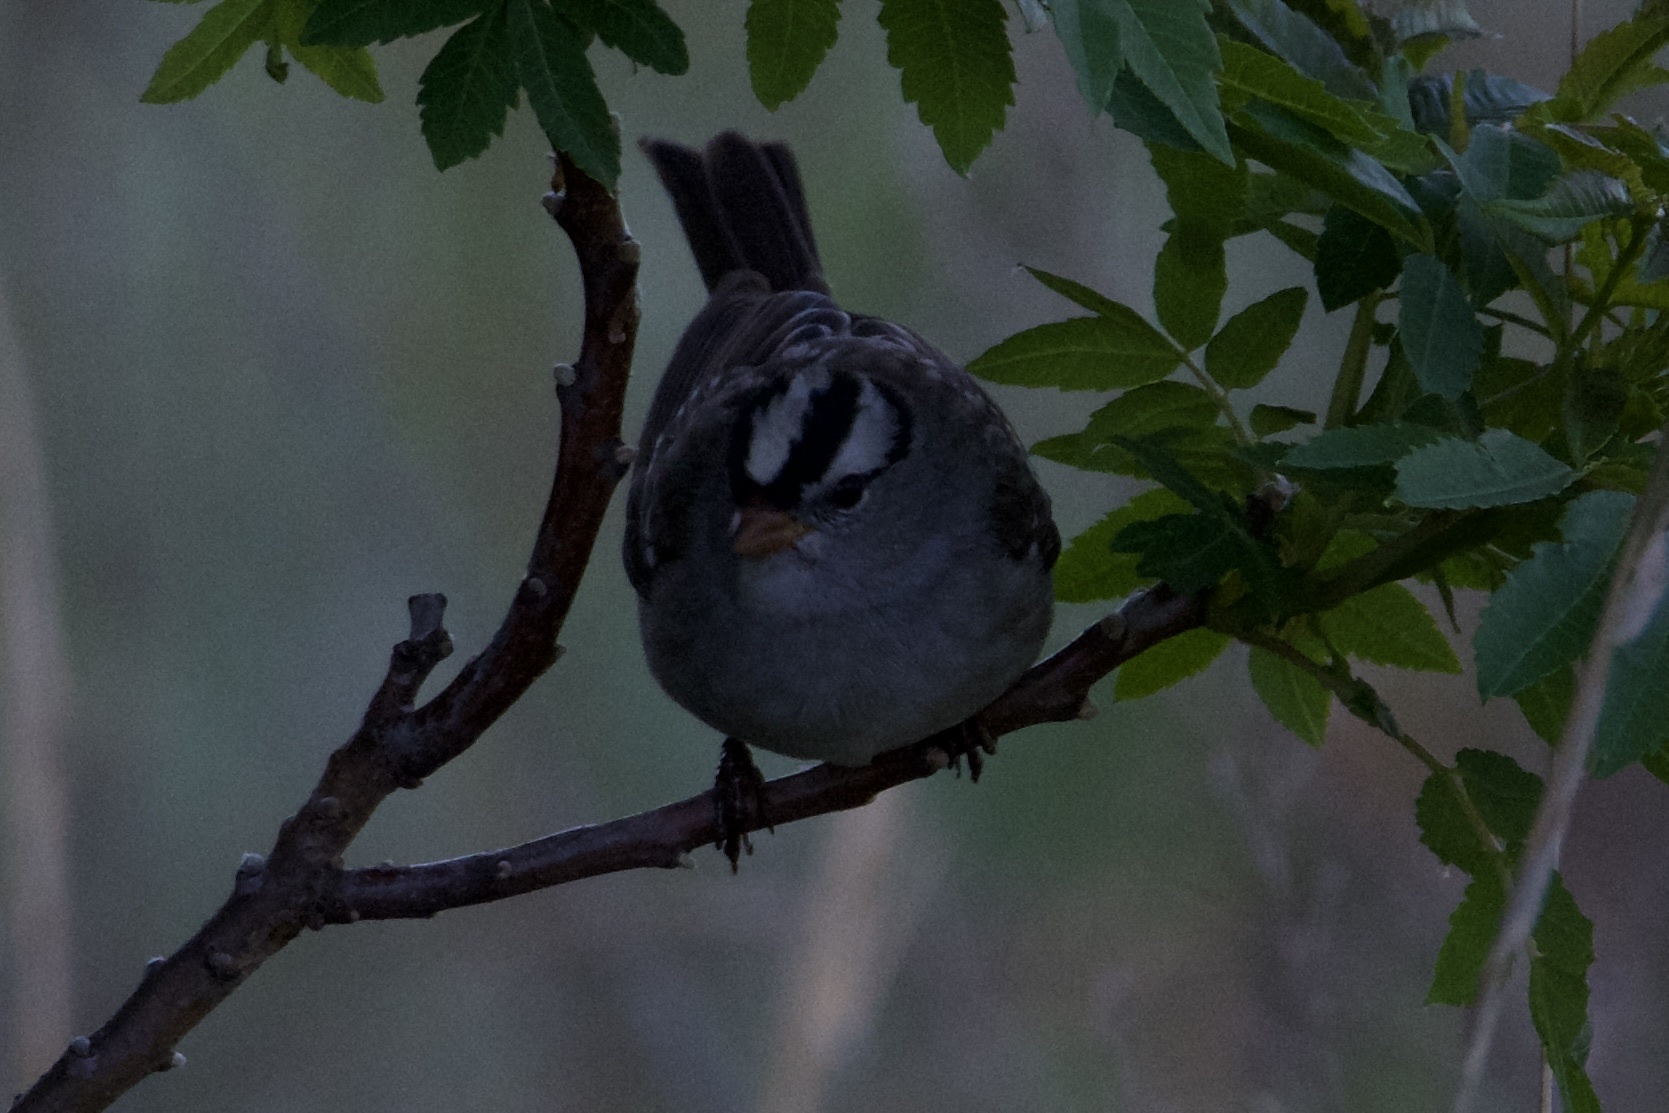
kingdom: Animalia
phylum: Chordata
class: Aves
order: Passeriformes
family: Passerellidae
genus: Zonotrichia
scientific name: Zonotrichia leucophrys
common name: White-crowned sparrow
